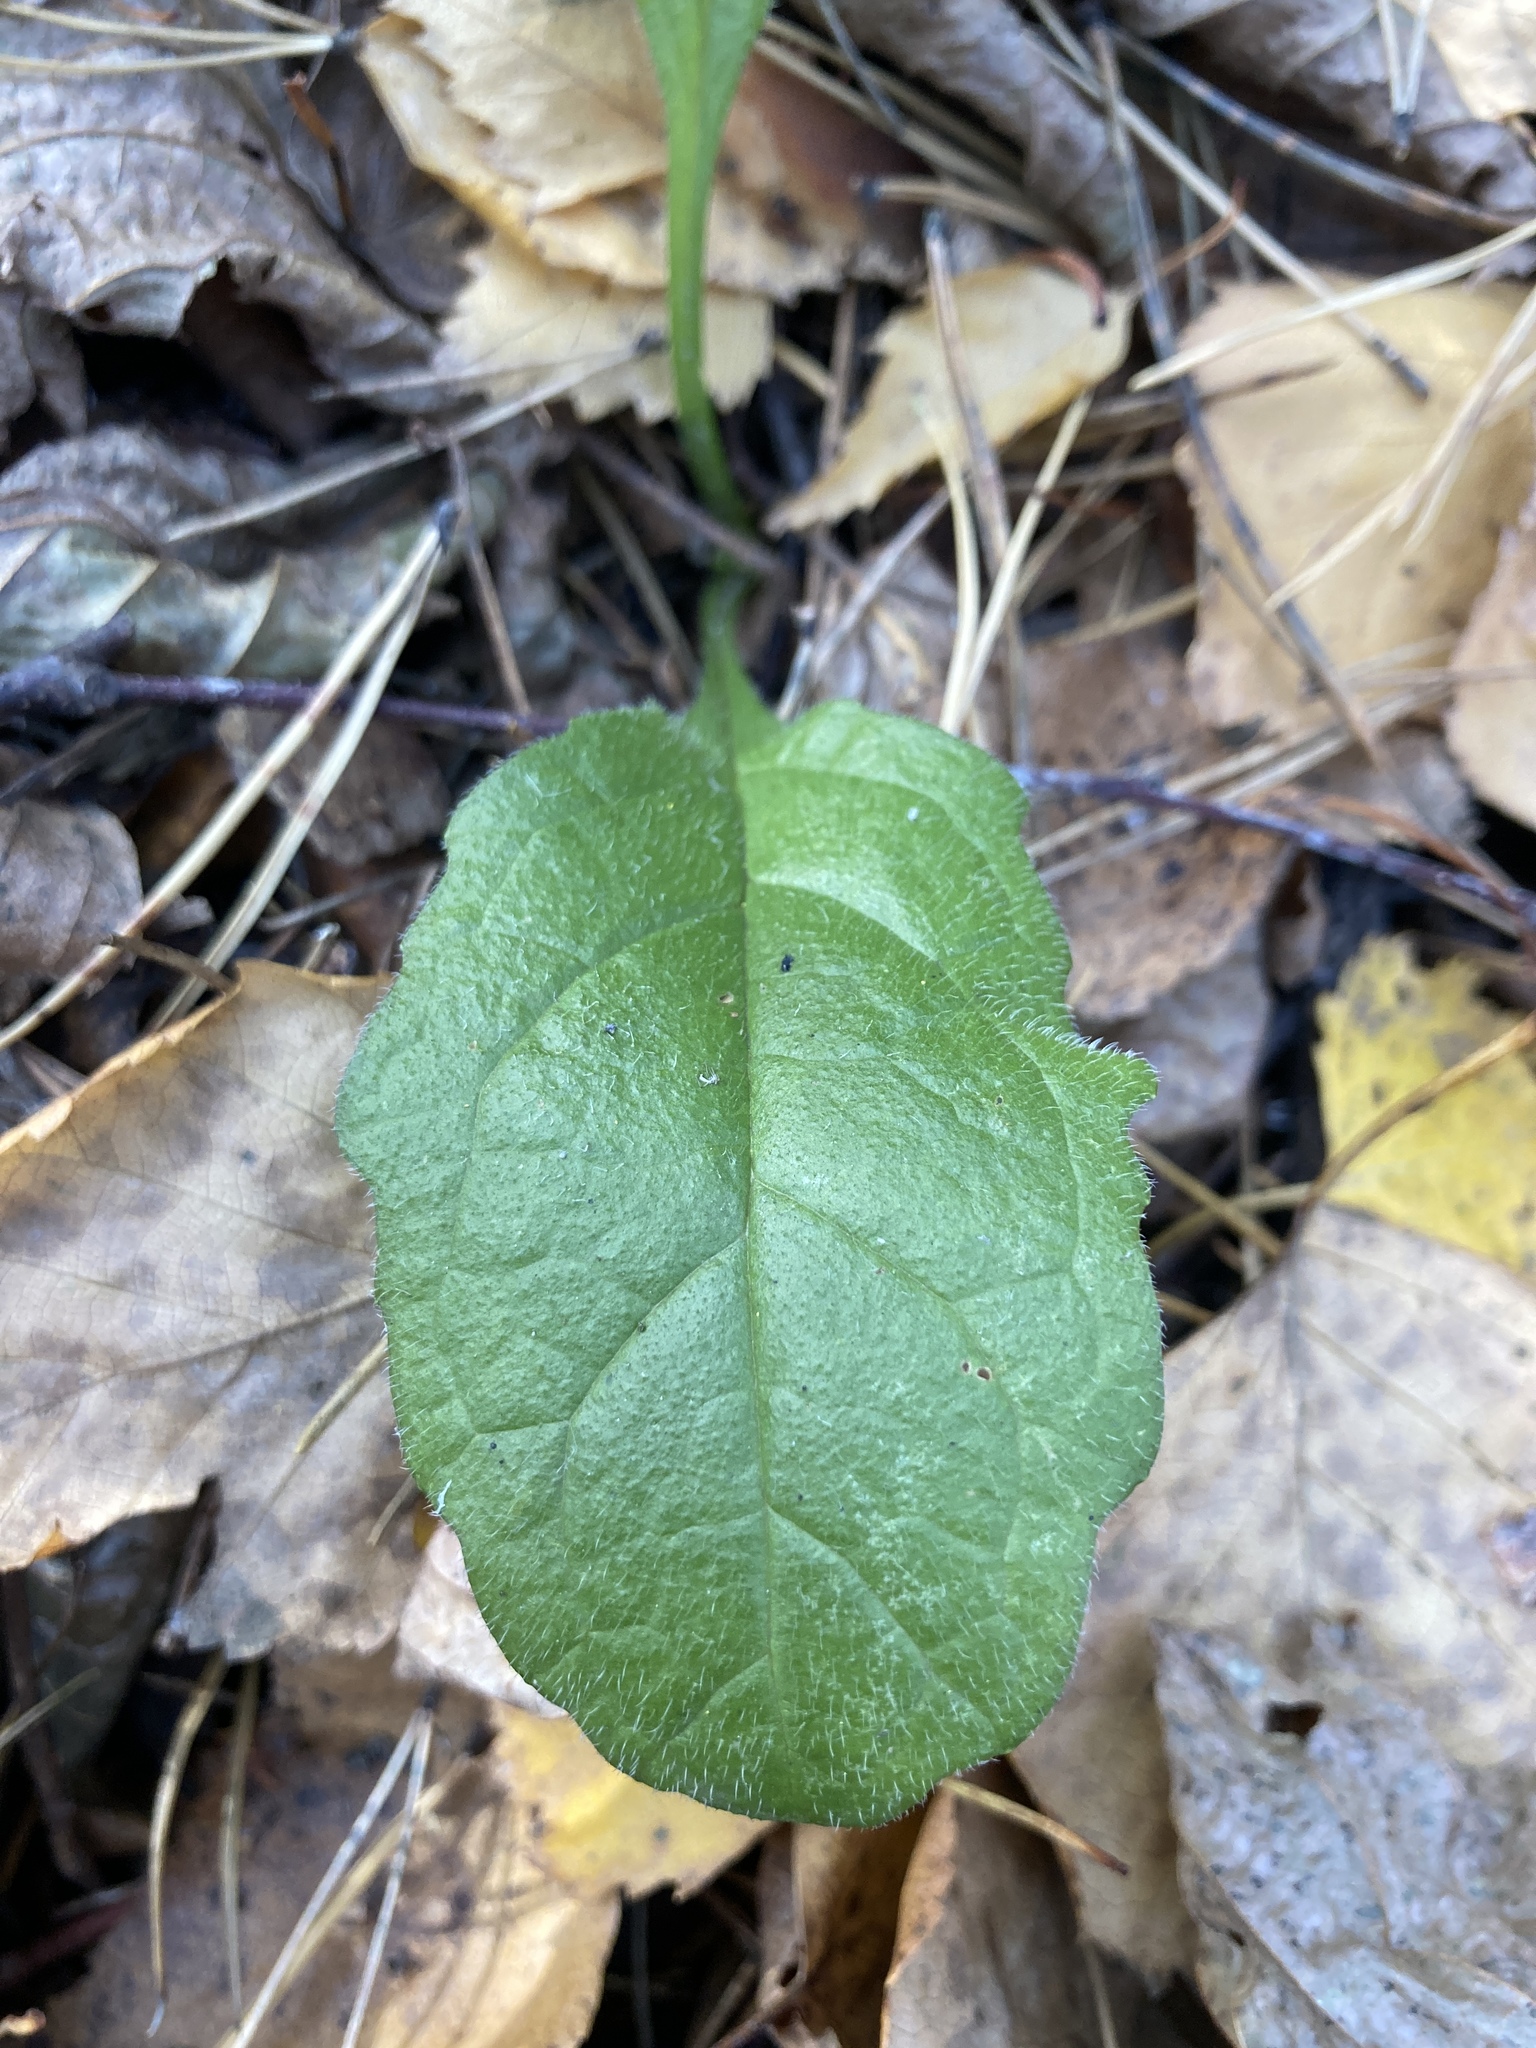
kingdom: Plantae
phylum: Tracheophyta
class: Magnoliopsida
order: Lamiales
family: Lamiaceae
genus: Ajuga
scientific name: Ajuga reptans
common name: Bugle
